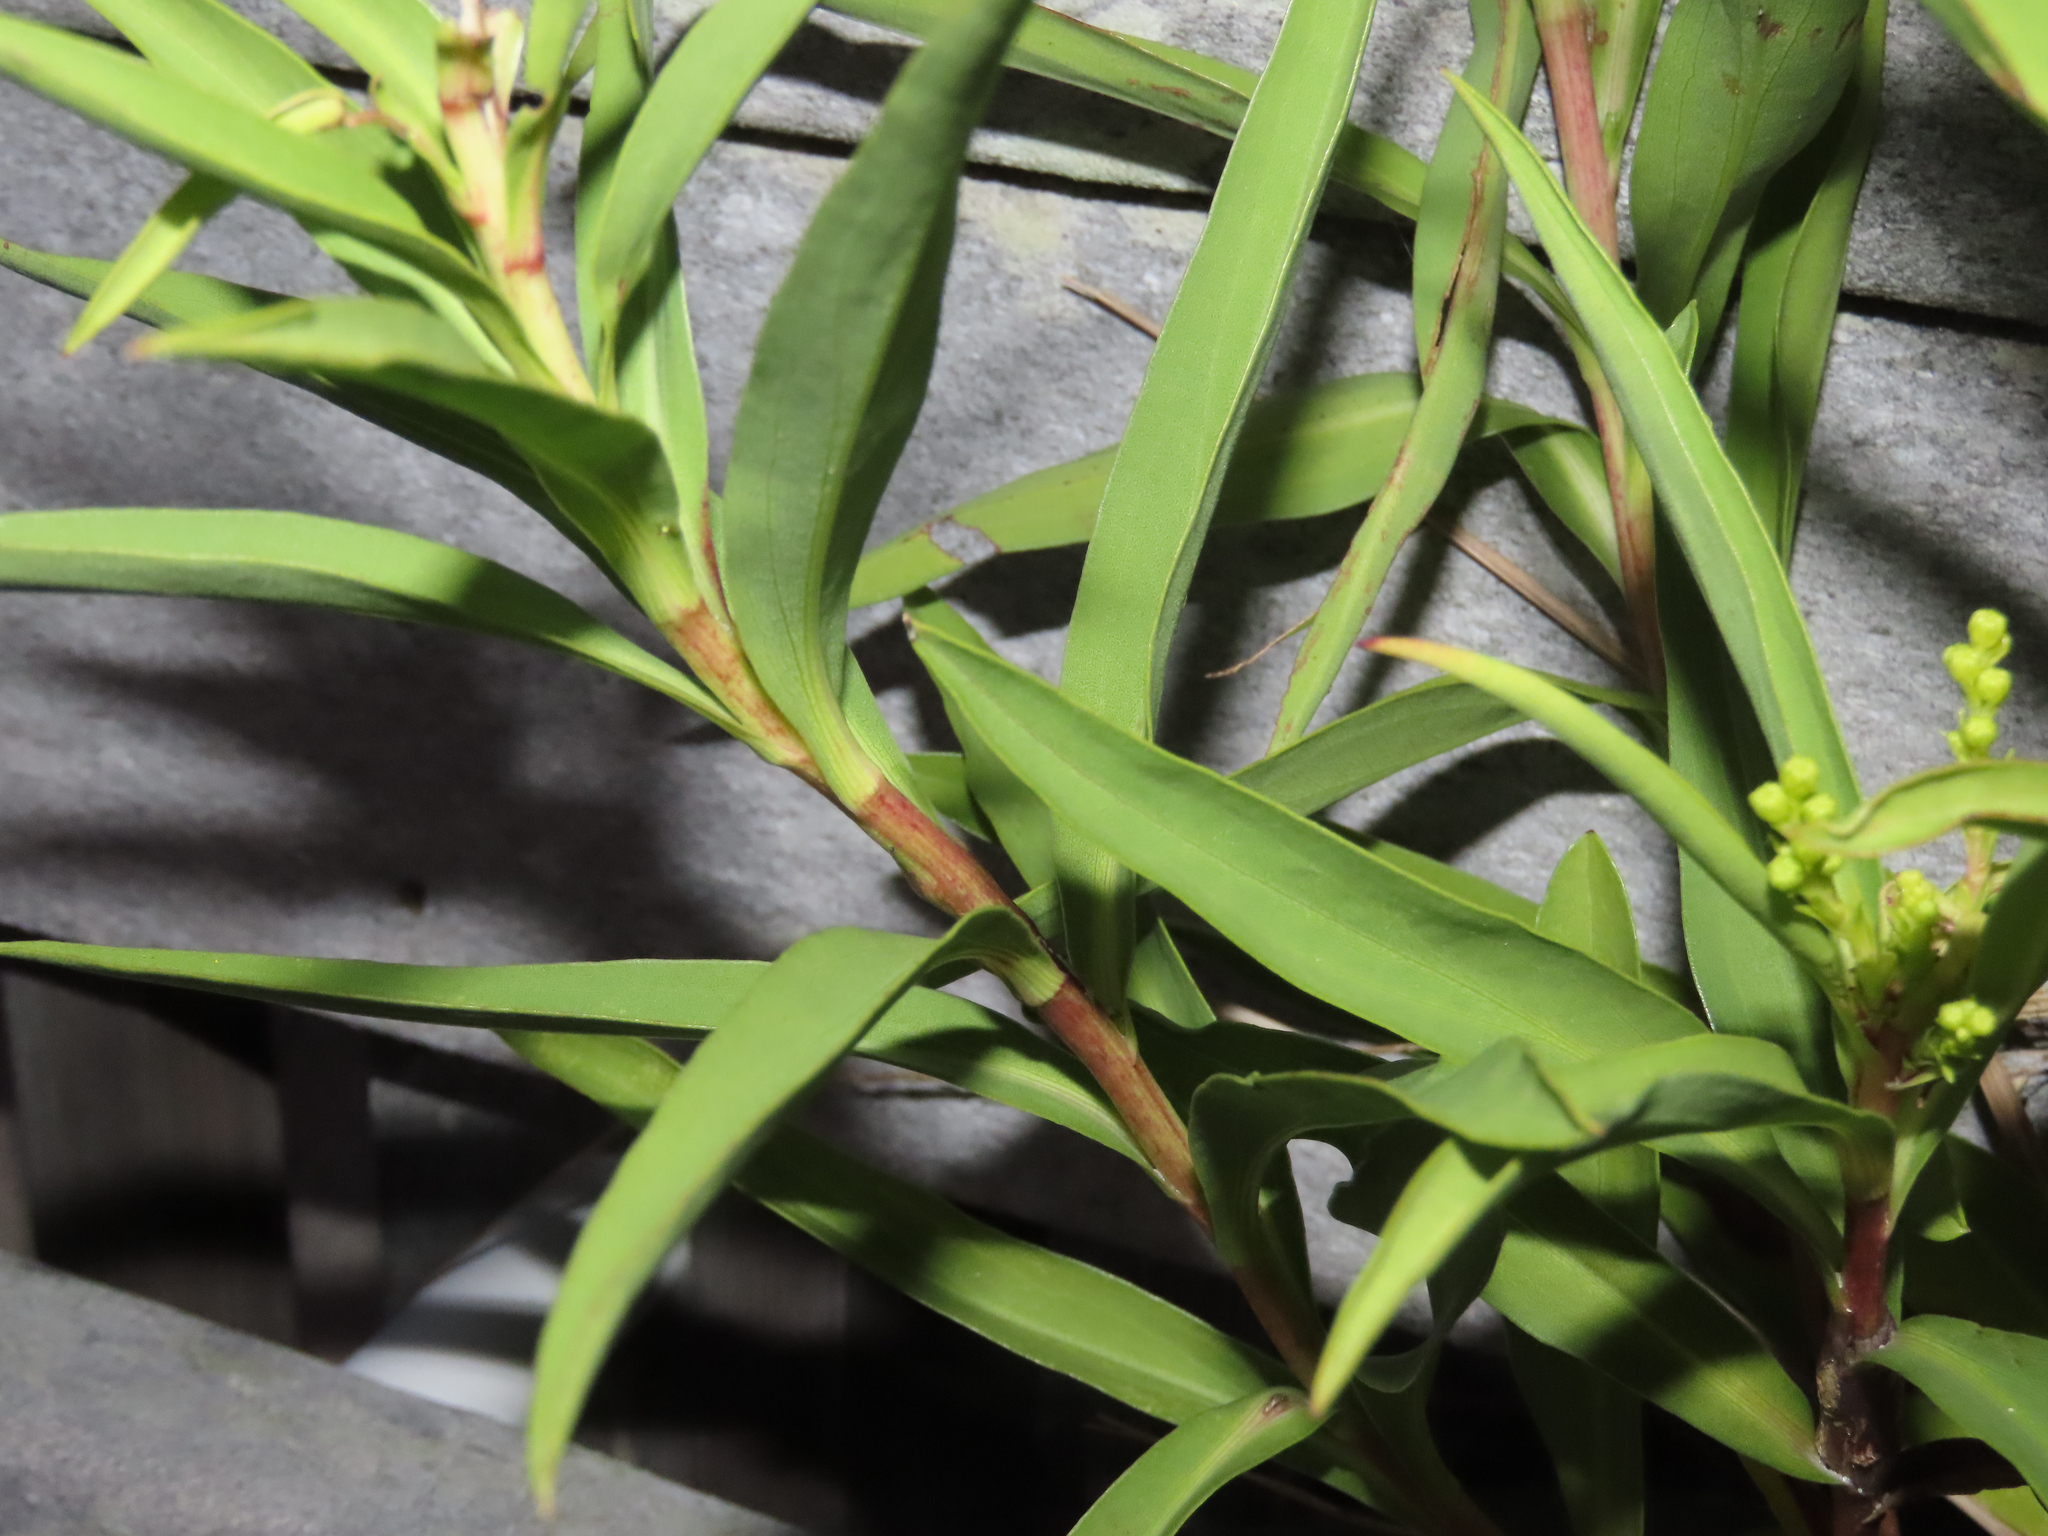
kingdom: Plantae
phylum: Tracheophyta
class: Magnoliopsida
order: Asterales
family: Asteraceae
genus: Solidago
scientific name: Solidago sempervirens
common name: Salt-marsh goldenrod
